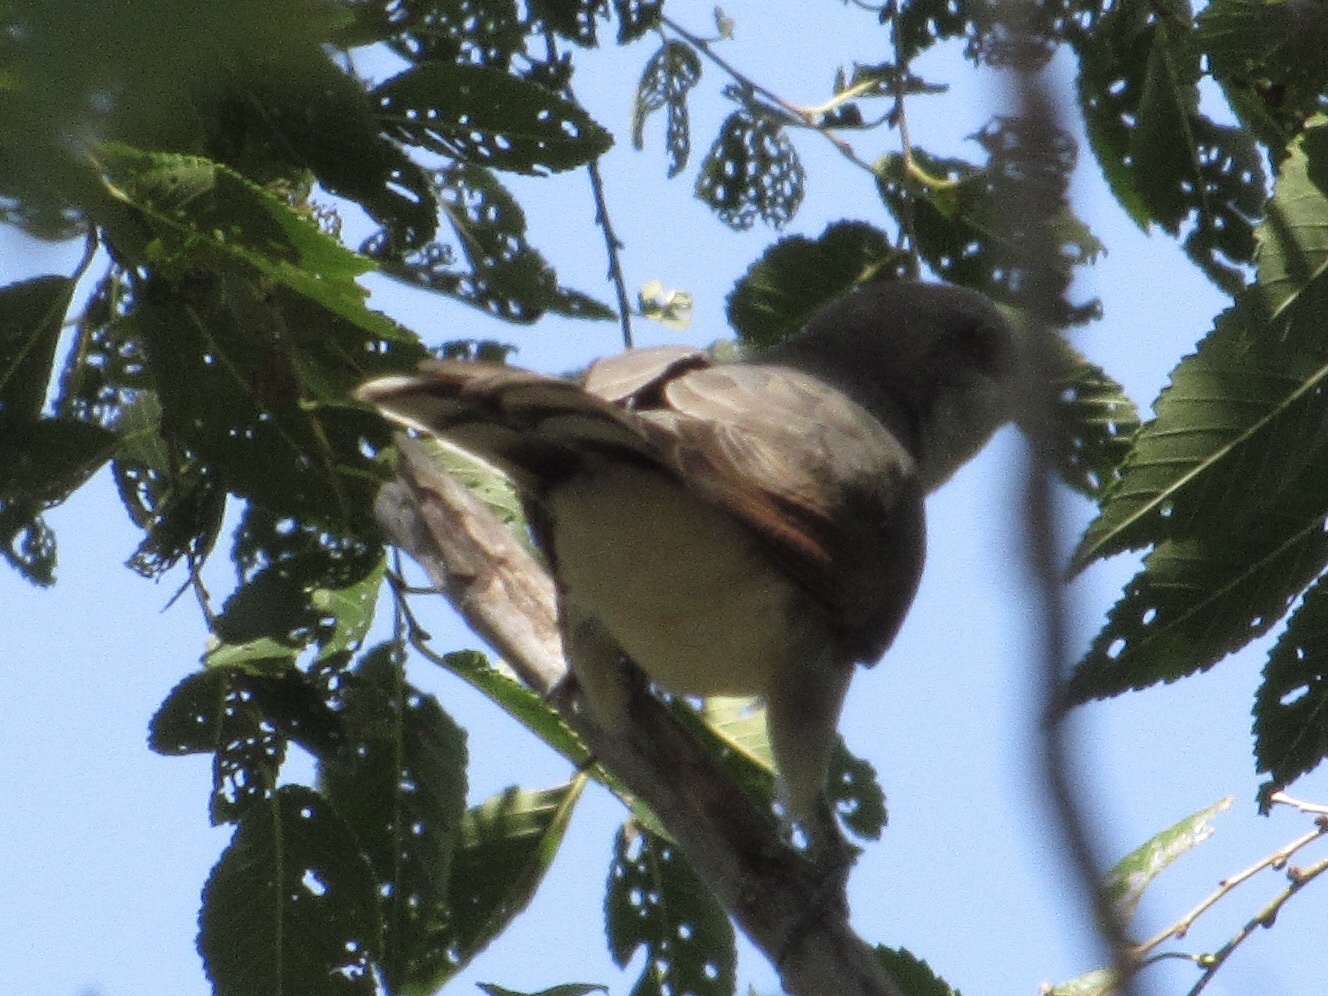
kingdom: Animalia
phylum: Chordata
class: Aves
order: Cuculiformes
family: Cuculidae
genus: Coccyzus
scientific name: Coccyzus americanus
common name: Yellow-billed cuckoo
